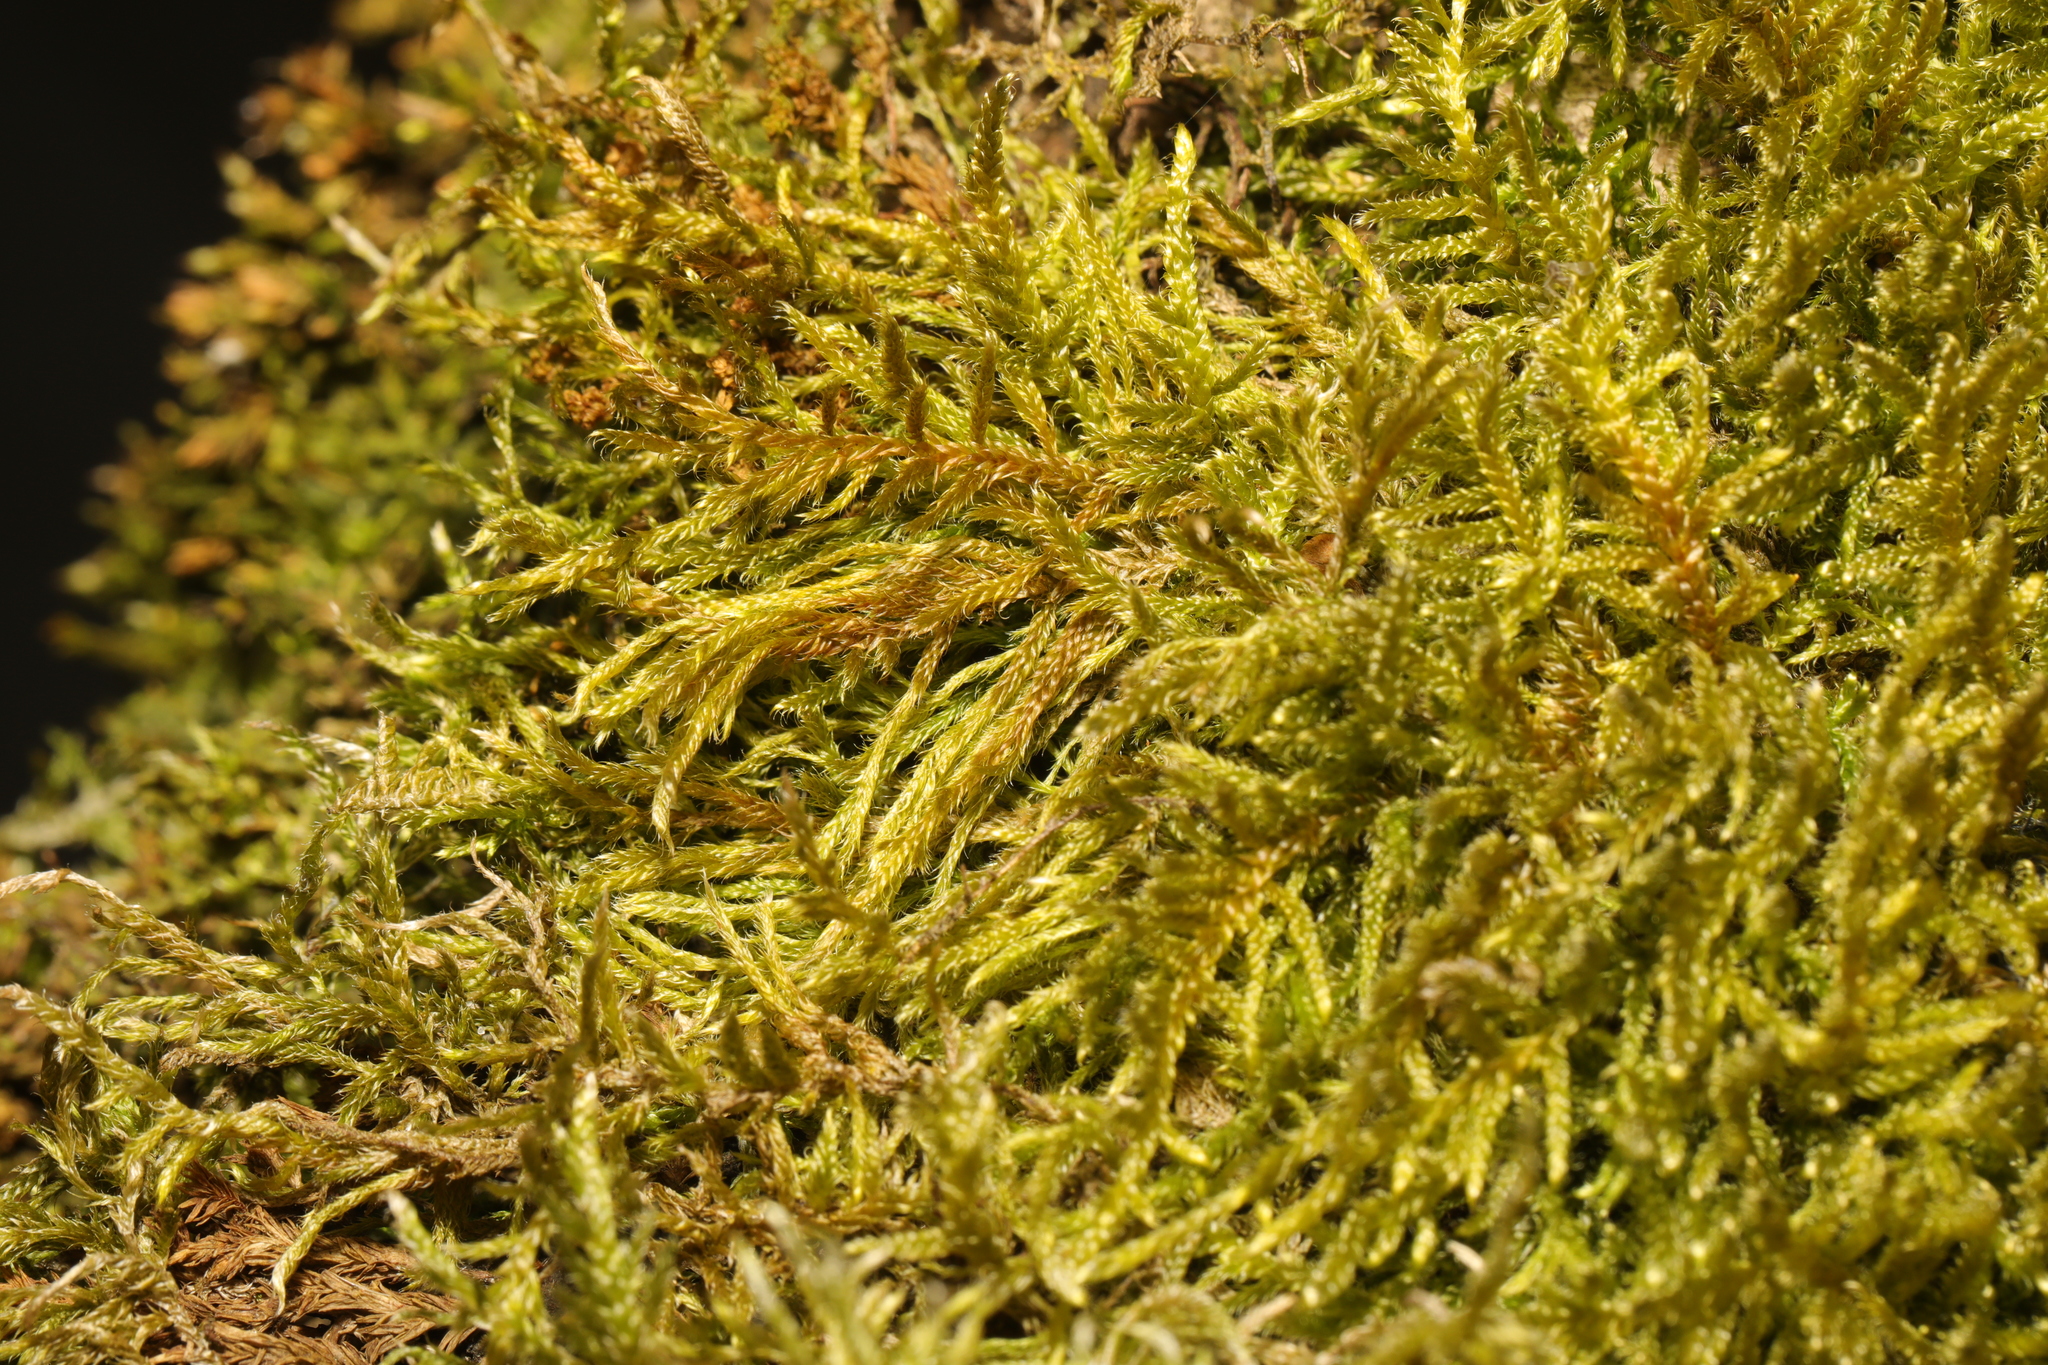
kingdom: Plantae
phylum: Bryophyta
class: Bryopsida
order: Hypnales
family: Hypnaceae
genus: Hypnum
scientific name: Hypnum cupressiforme
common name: Cypress-leaved plait-moss
